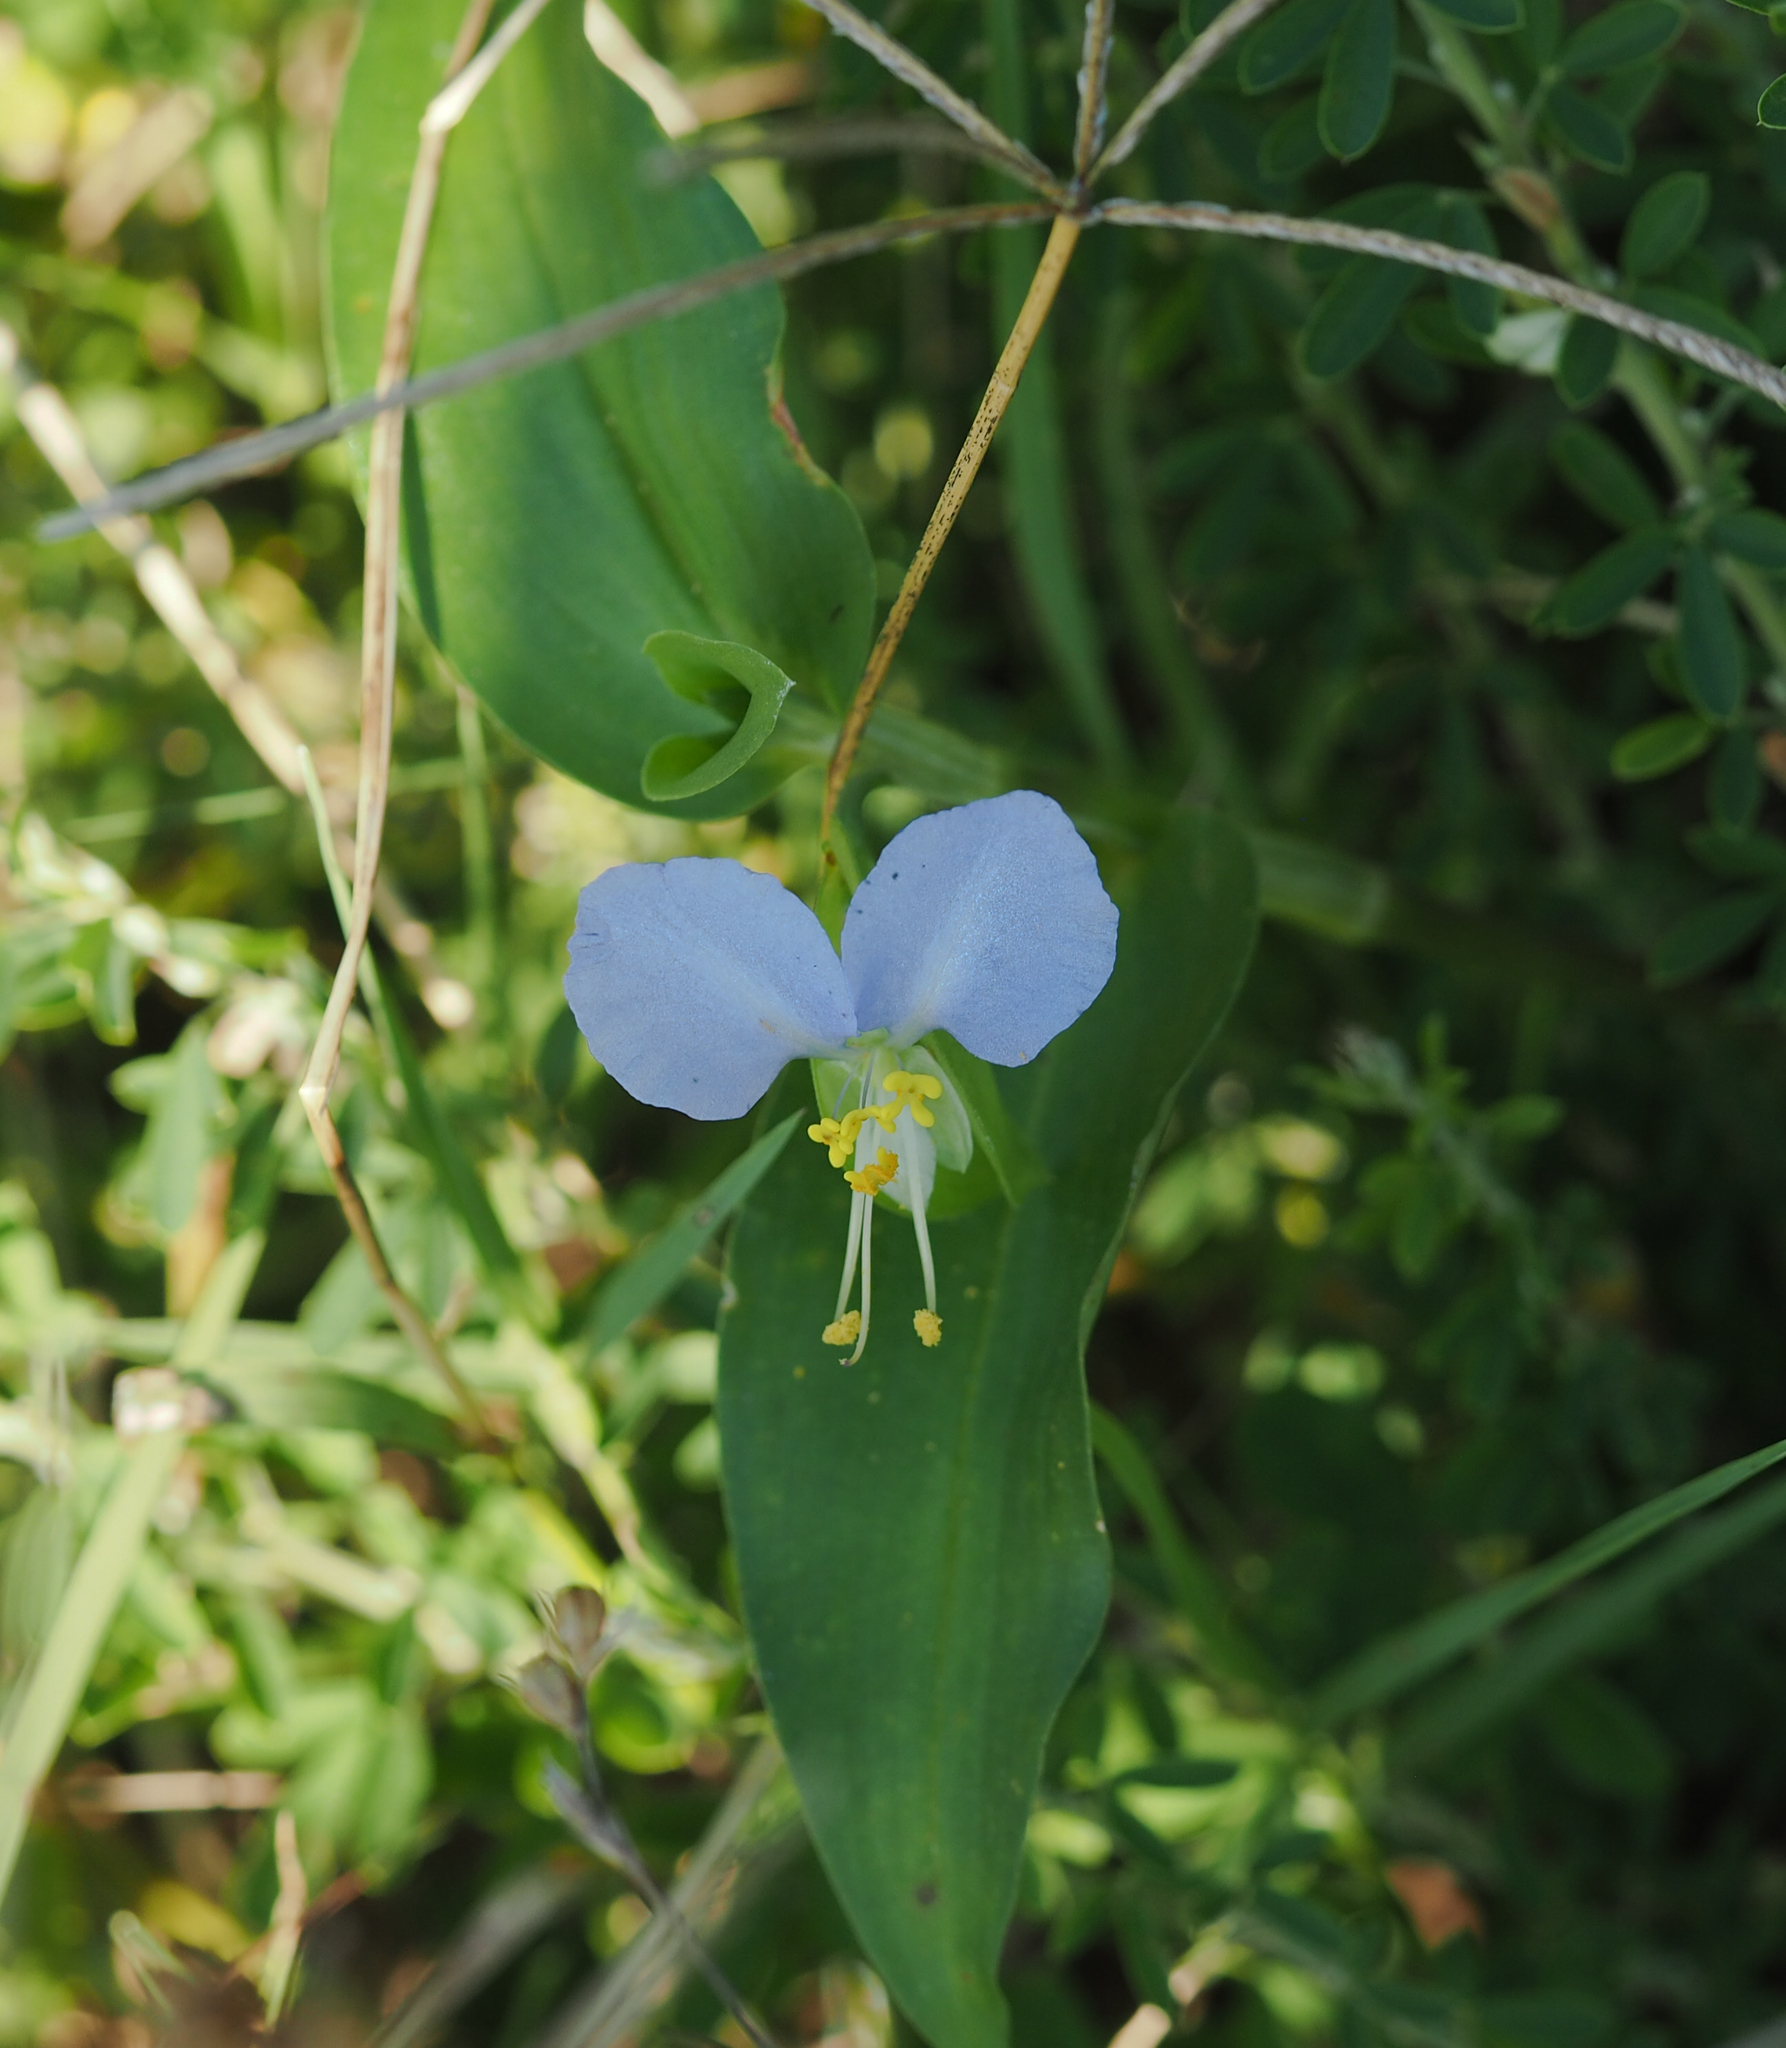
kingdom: Plantae
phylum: Tracheophyta
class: Liliopsida
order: Commelinales
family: Commelinaceae
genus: Commelina
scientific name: Commelina communis
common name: Asiatic dayflower
